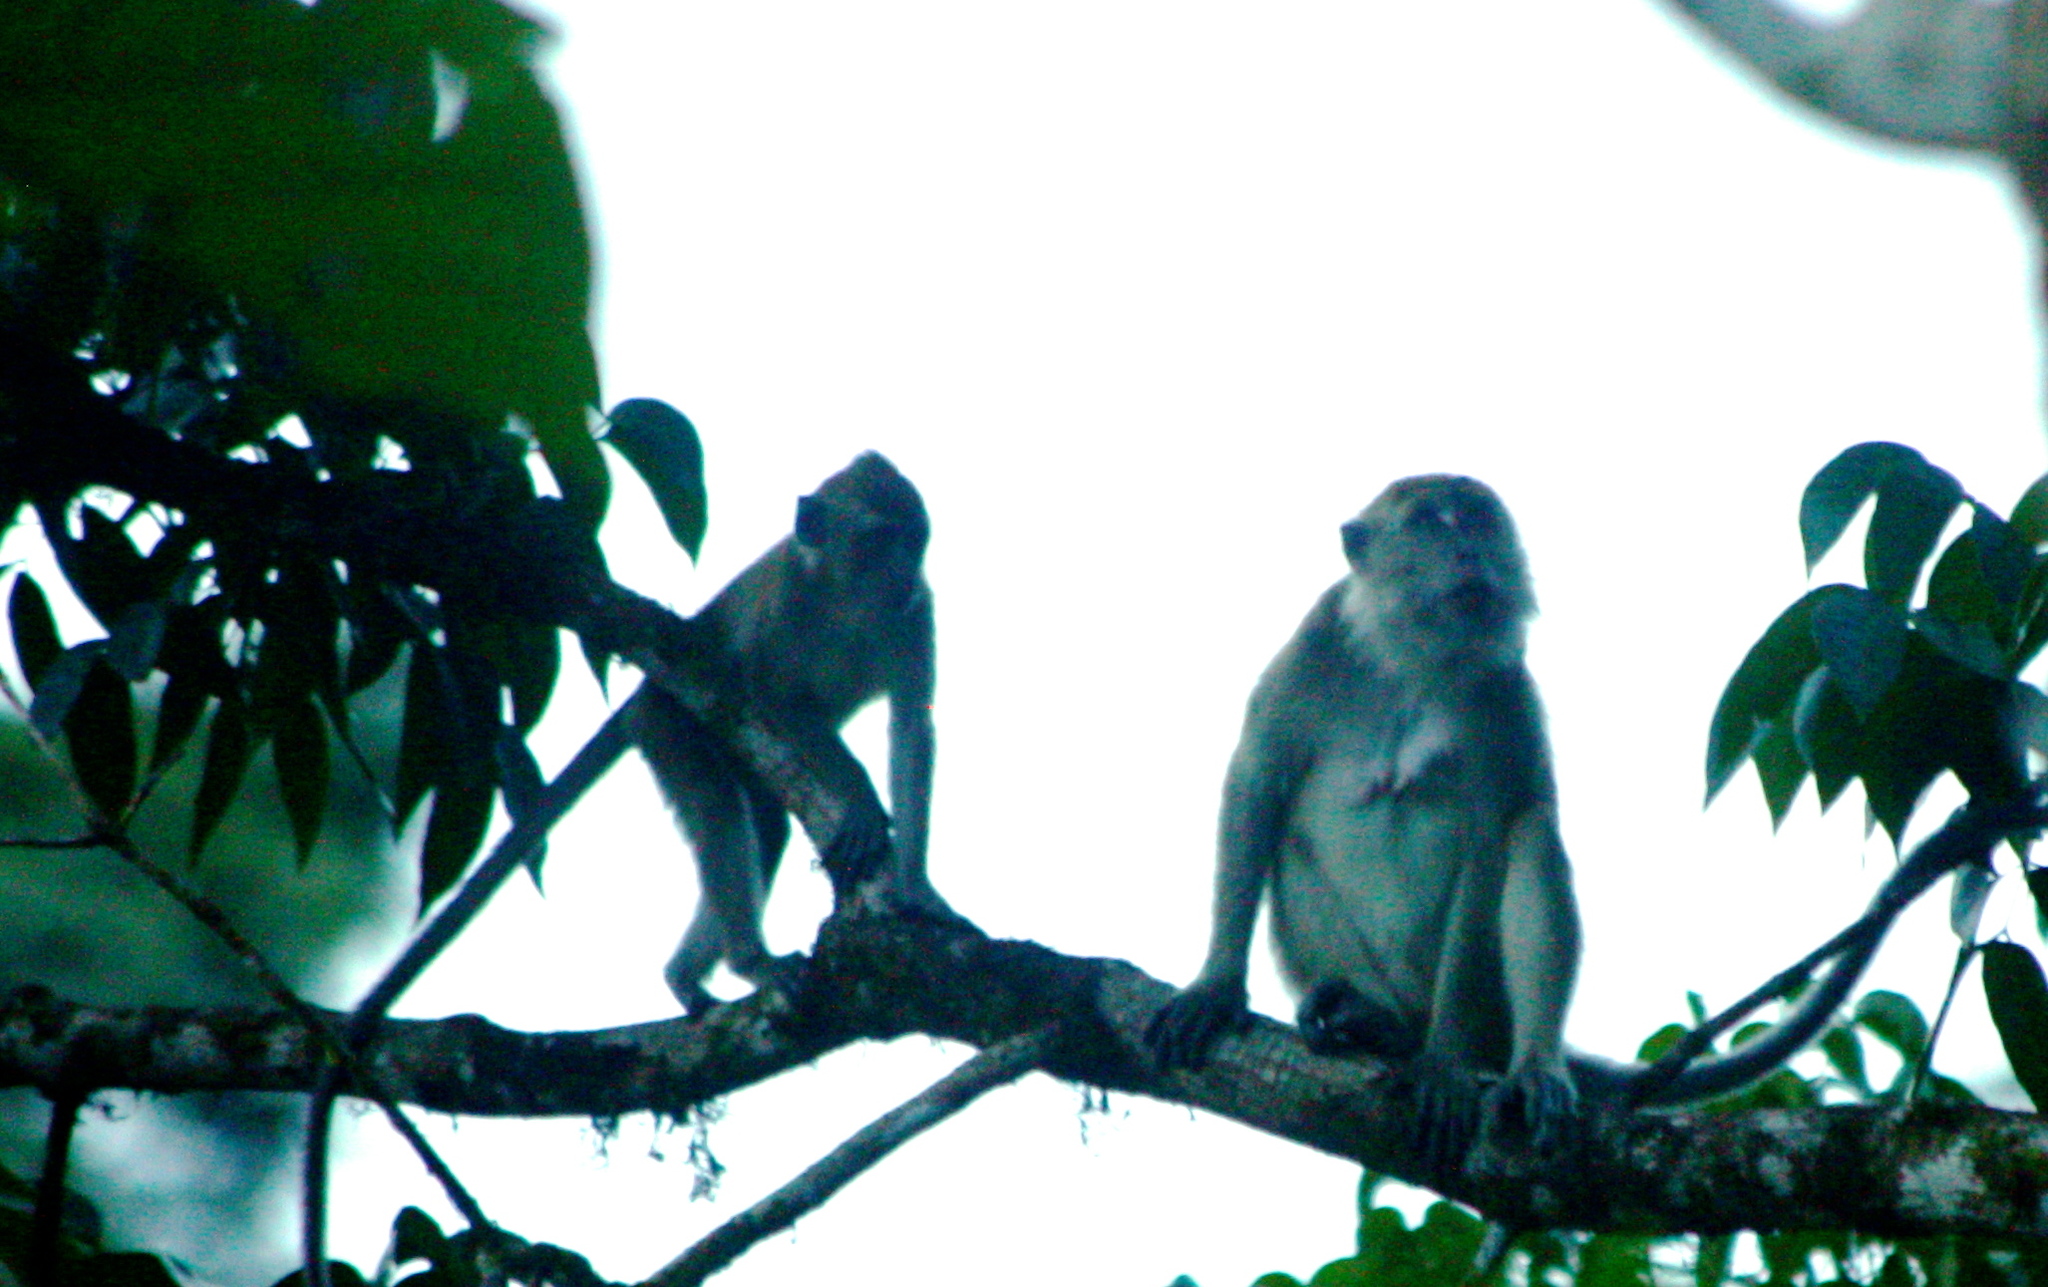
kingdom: Animalia
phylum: Chordata
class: Mammalia
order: Primates
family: Cercopithecidae
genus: Macaca
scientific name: Macaca fascicularis
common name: Crab-eating macaque
